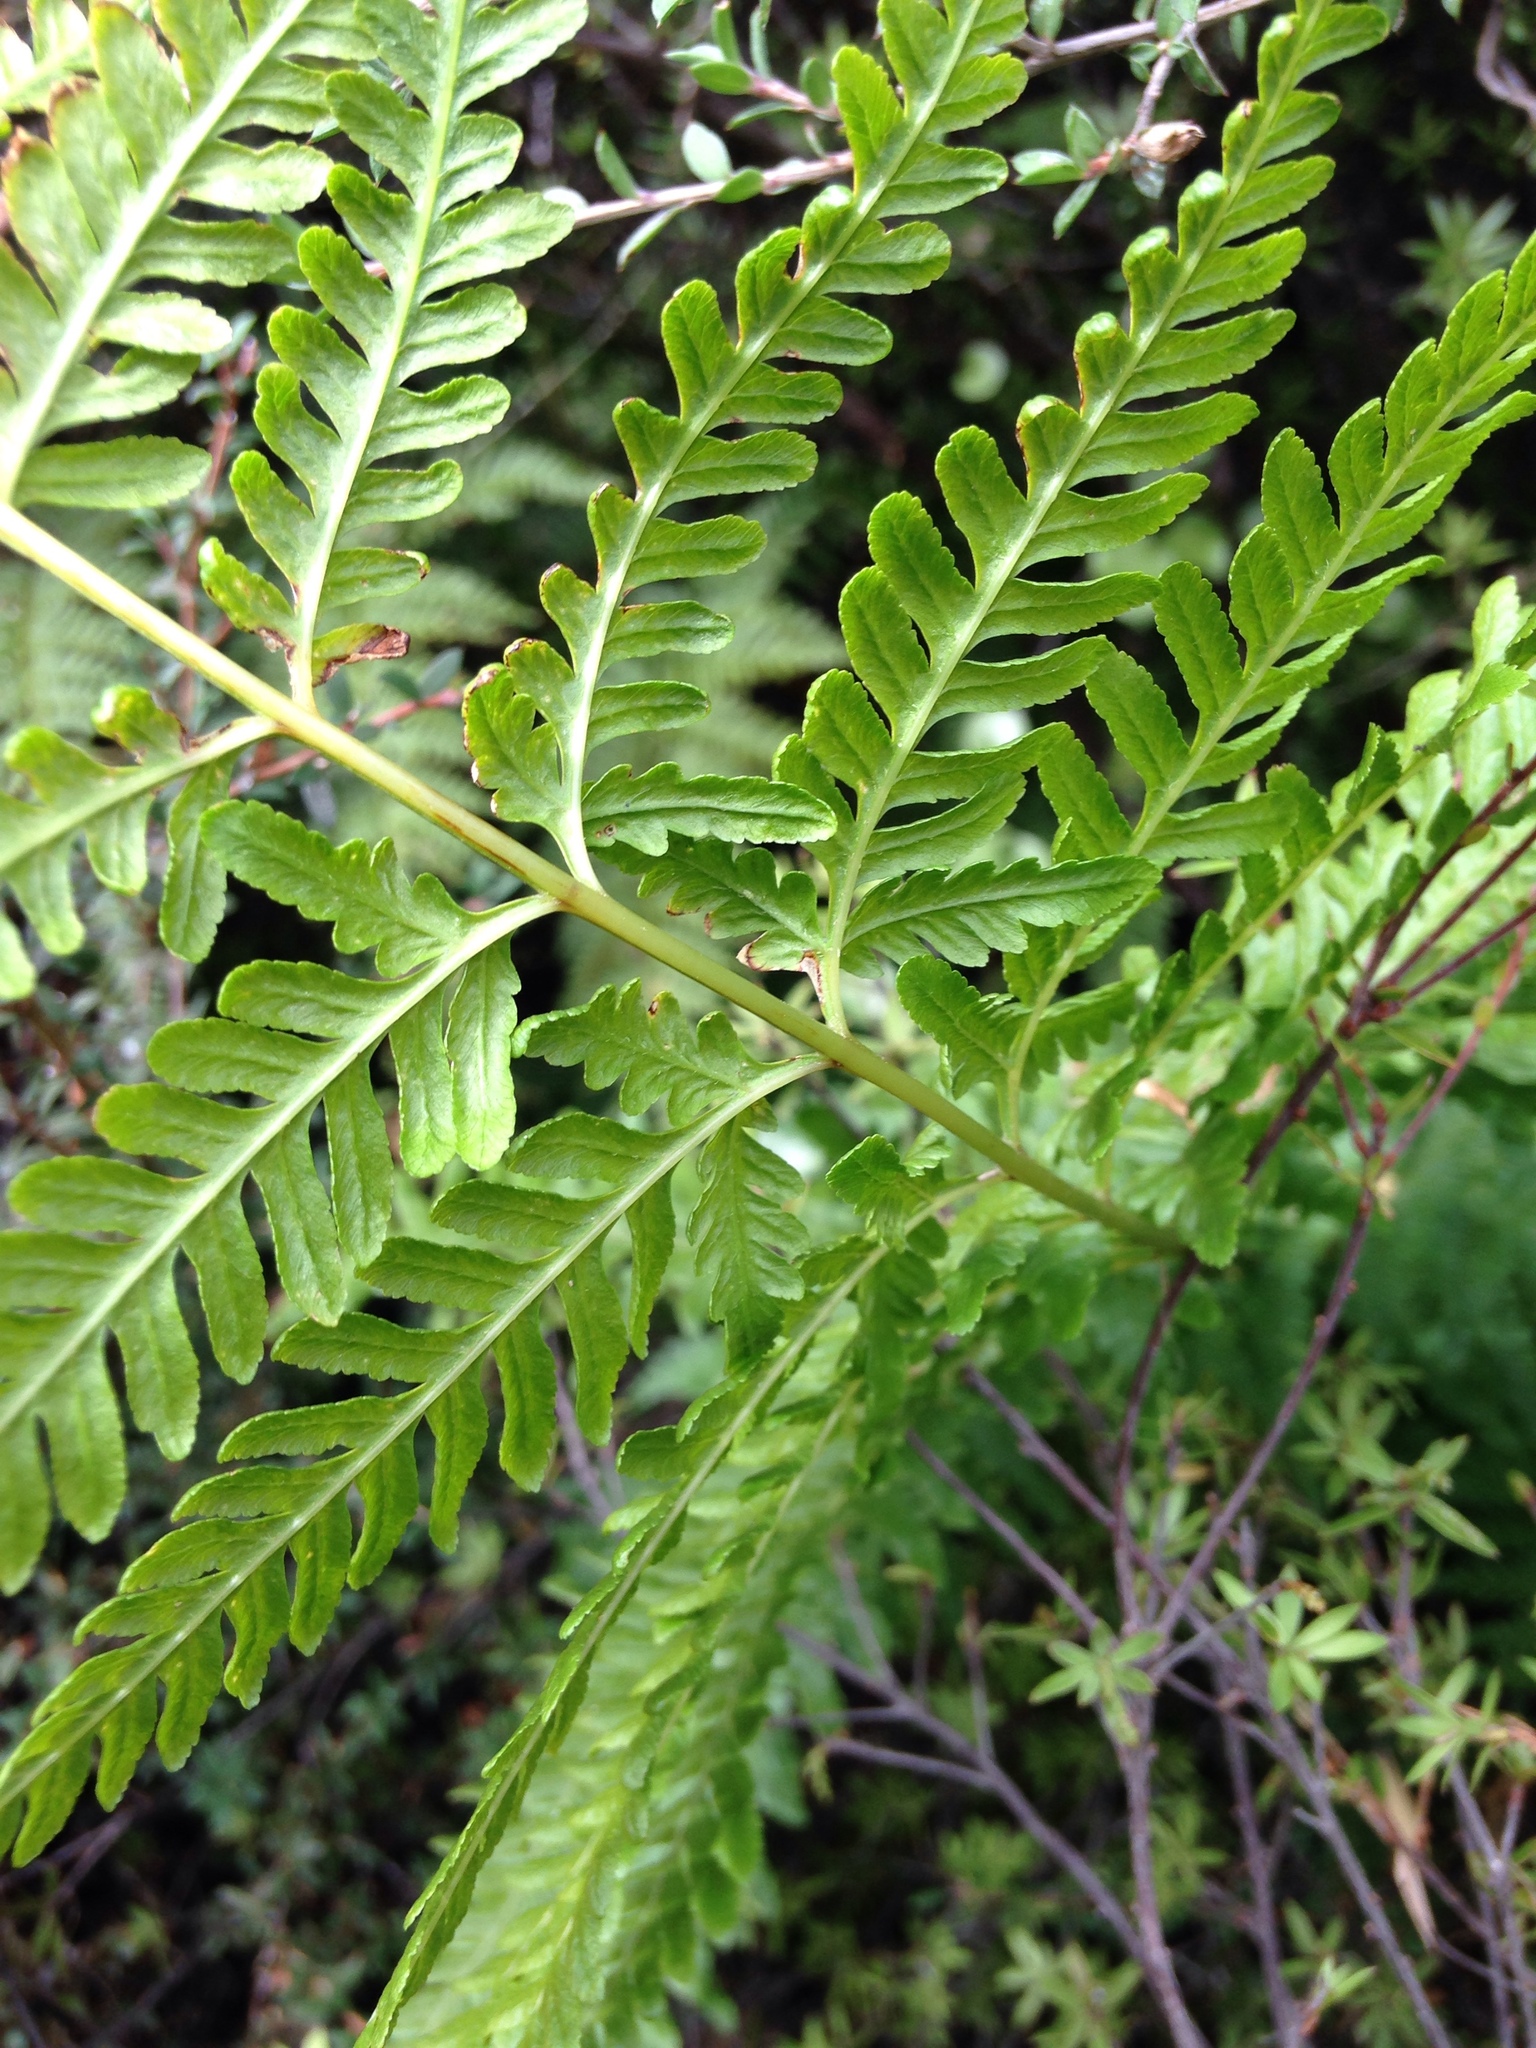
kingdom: Plantae
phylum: Tracheophyta
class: Polypodiopsida
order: Polypodiales
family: Pteridaceae
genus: Pteris
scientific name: Pteris tremula
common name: Australian brake
